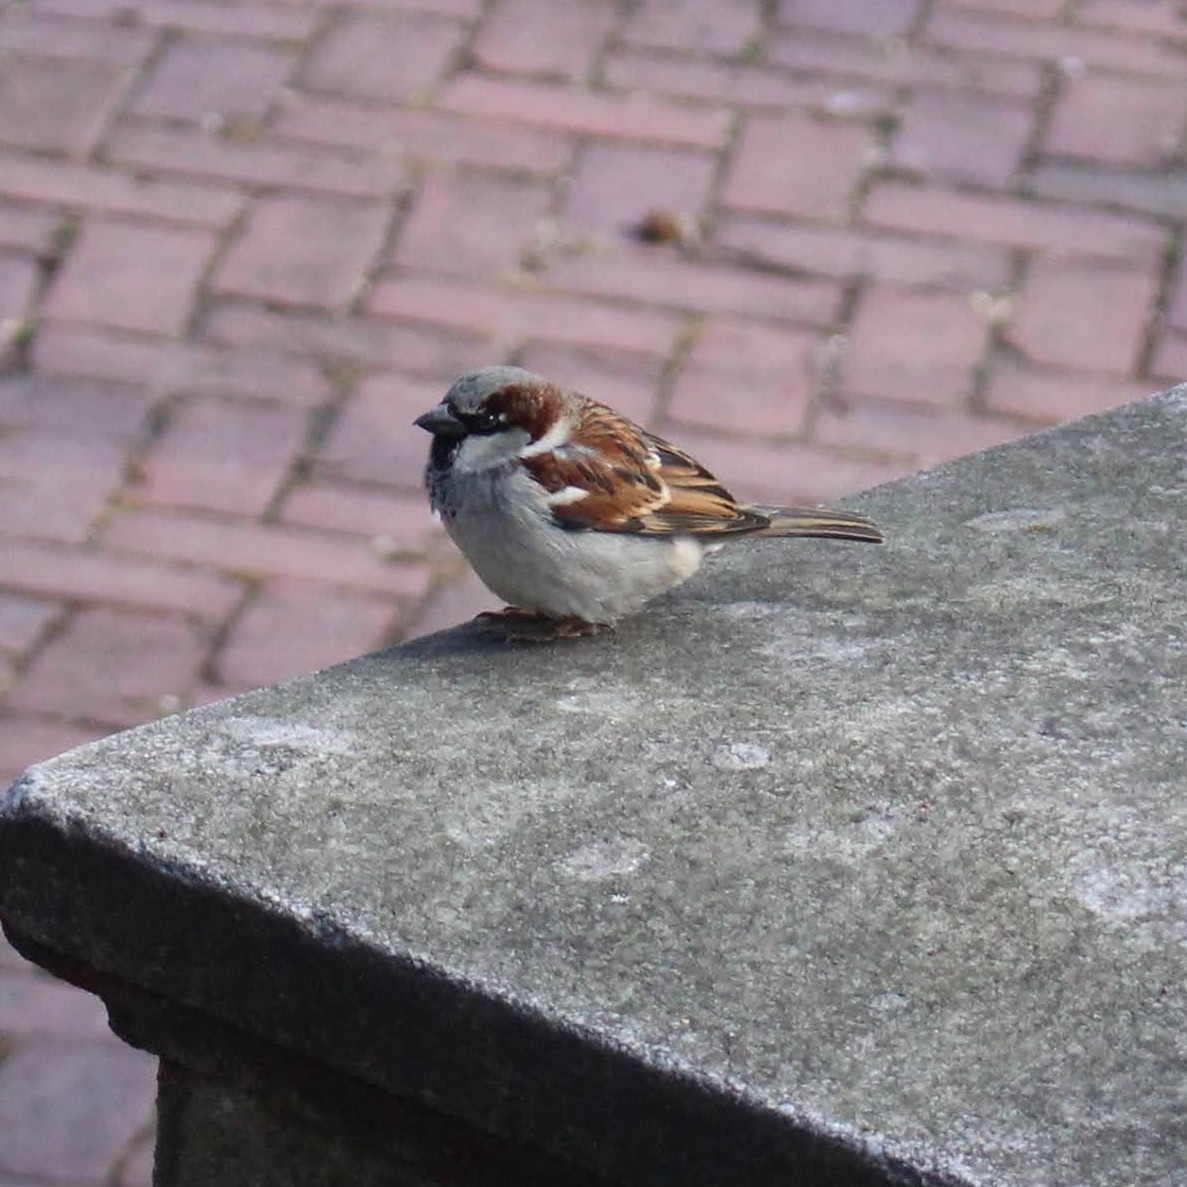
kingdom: Animalia
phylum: Chordata
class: Aves
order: Passeriformes
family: Passeridae
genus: Passer
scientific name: Passer domesticus
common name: House sparrow
